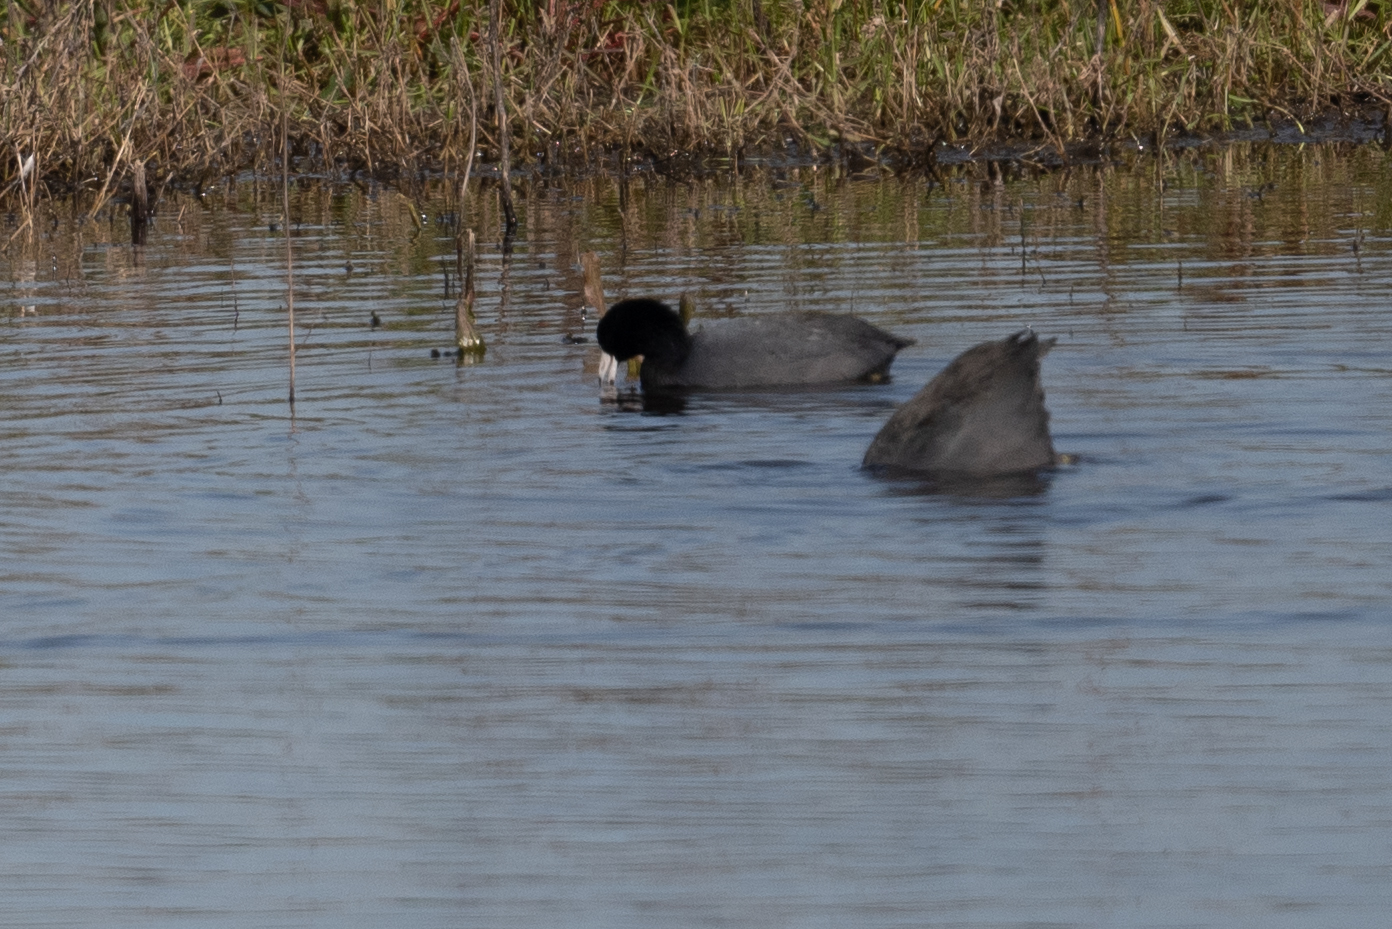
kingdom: Animalia
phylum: Chordata
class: Aves
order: Gruiformes
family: Rallidae
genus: Fulica
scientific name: Fulica americana
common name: American coot
